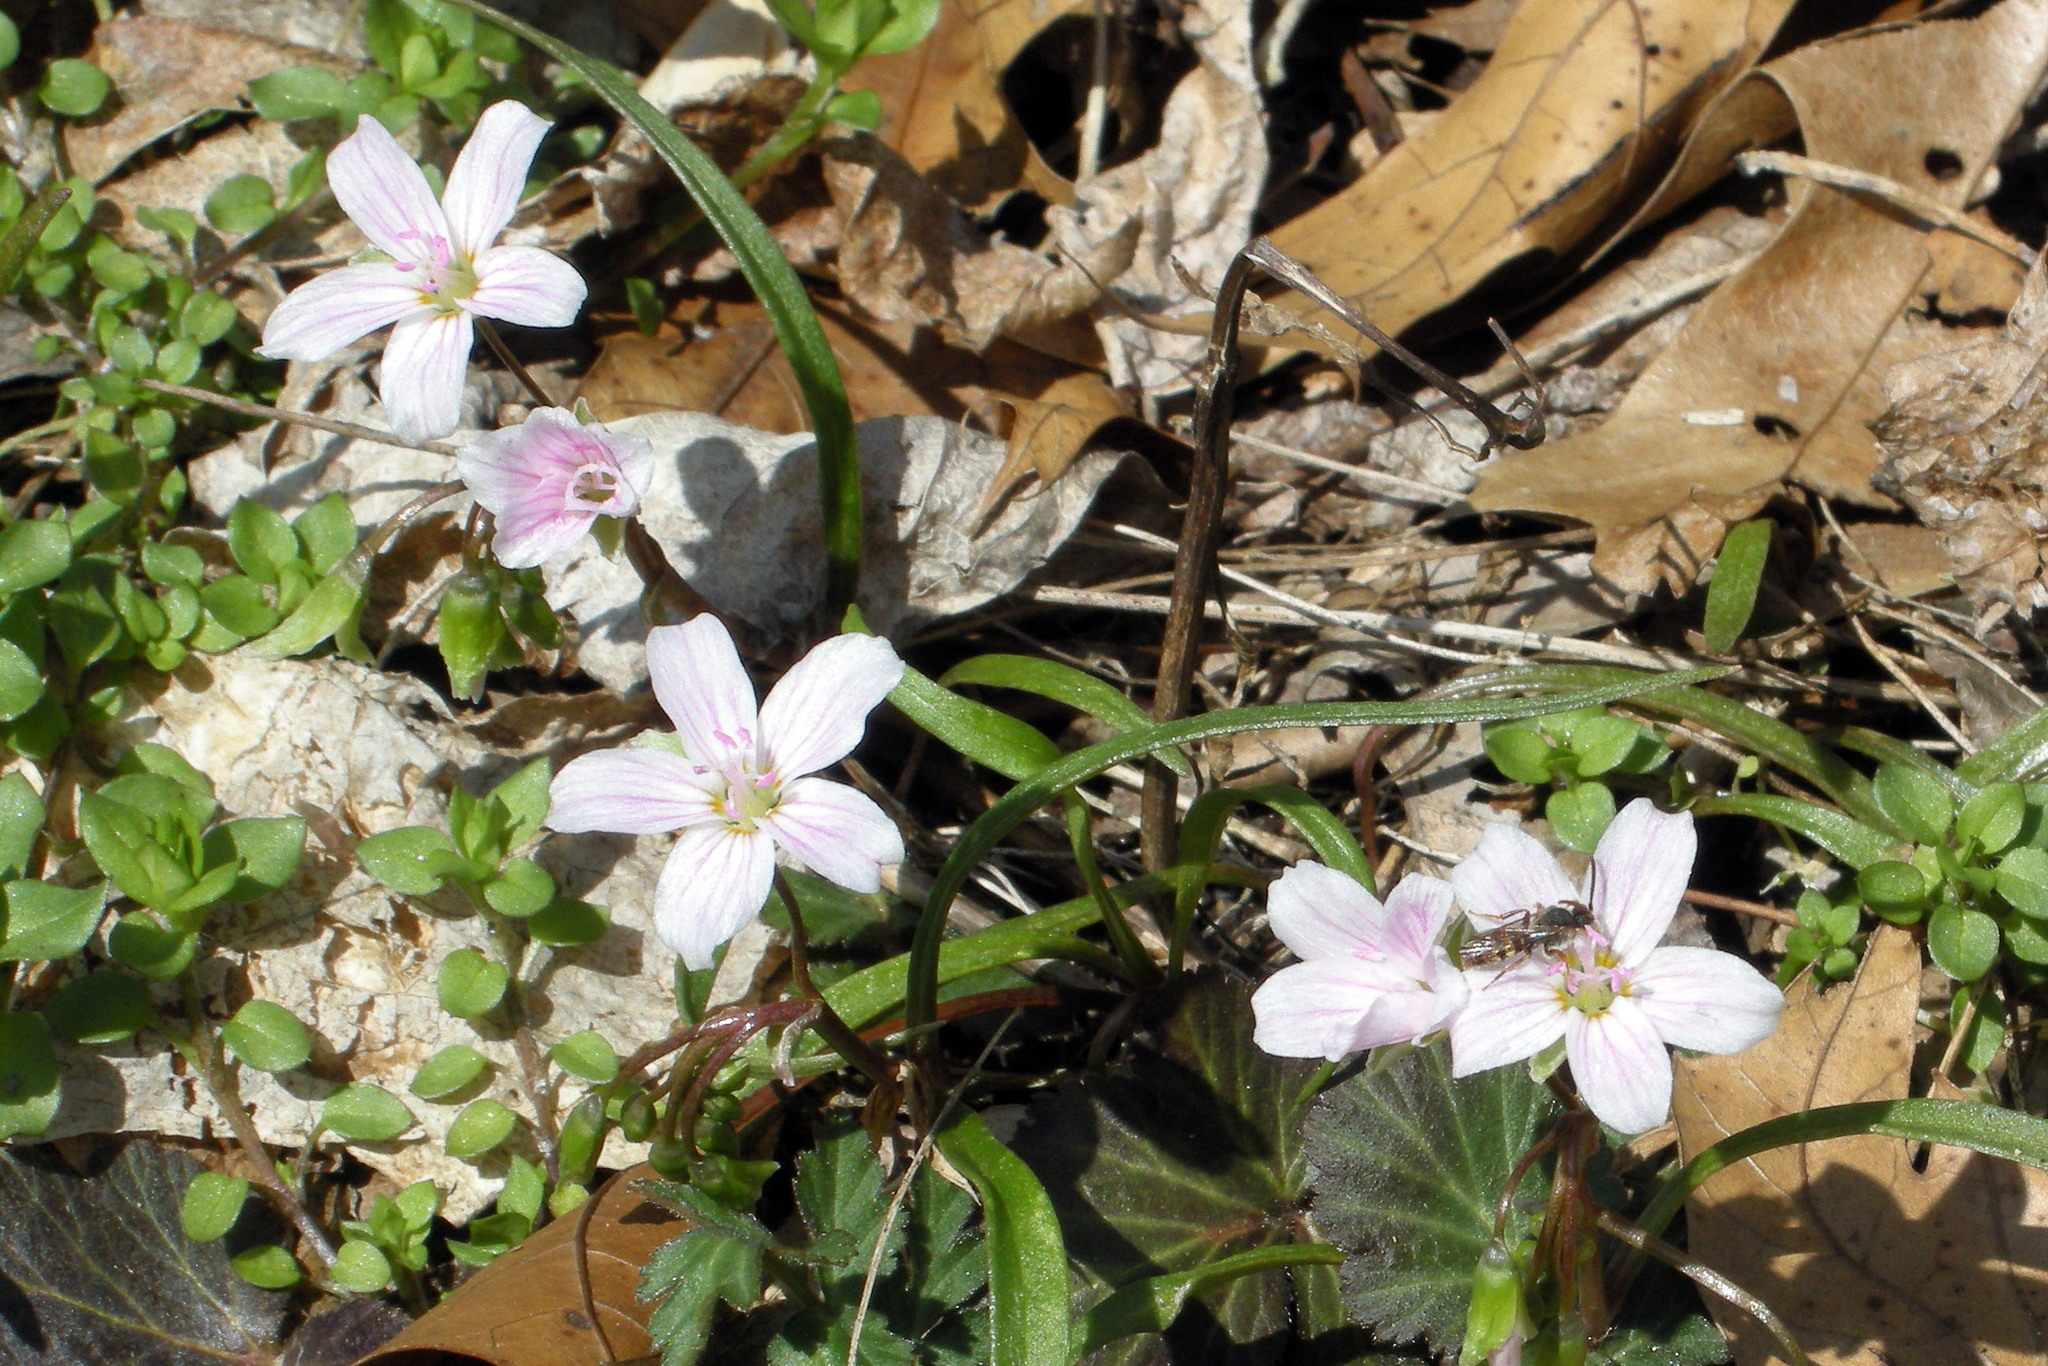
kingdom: Plantae
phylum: Tracheophyta
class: Magnoliopsida
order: Caryophyllales
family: Montiaceae
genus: Claytonia
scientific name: Claytonia virginica
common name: Virginia springbeauty
